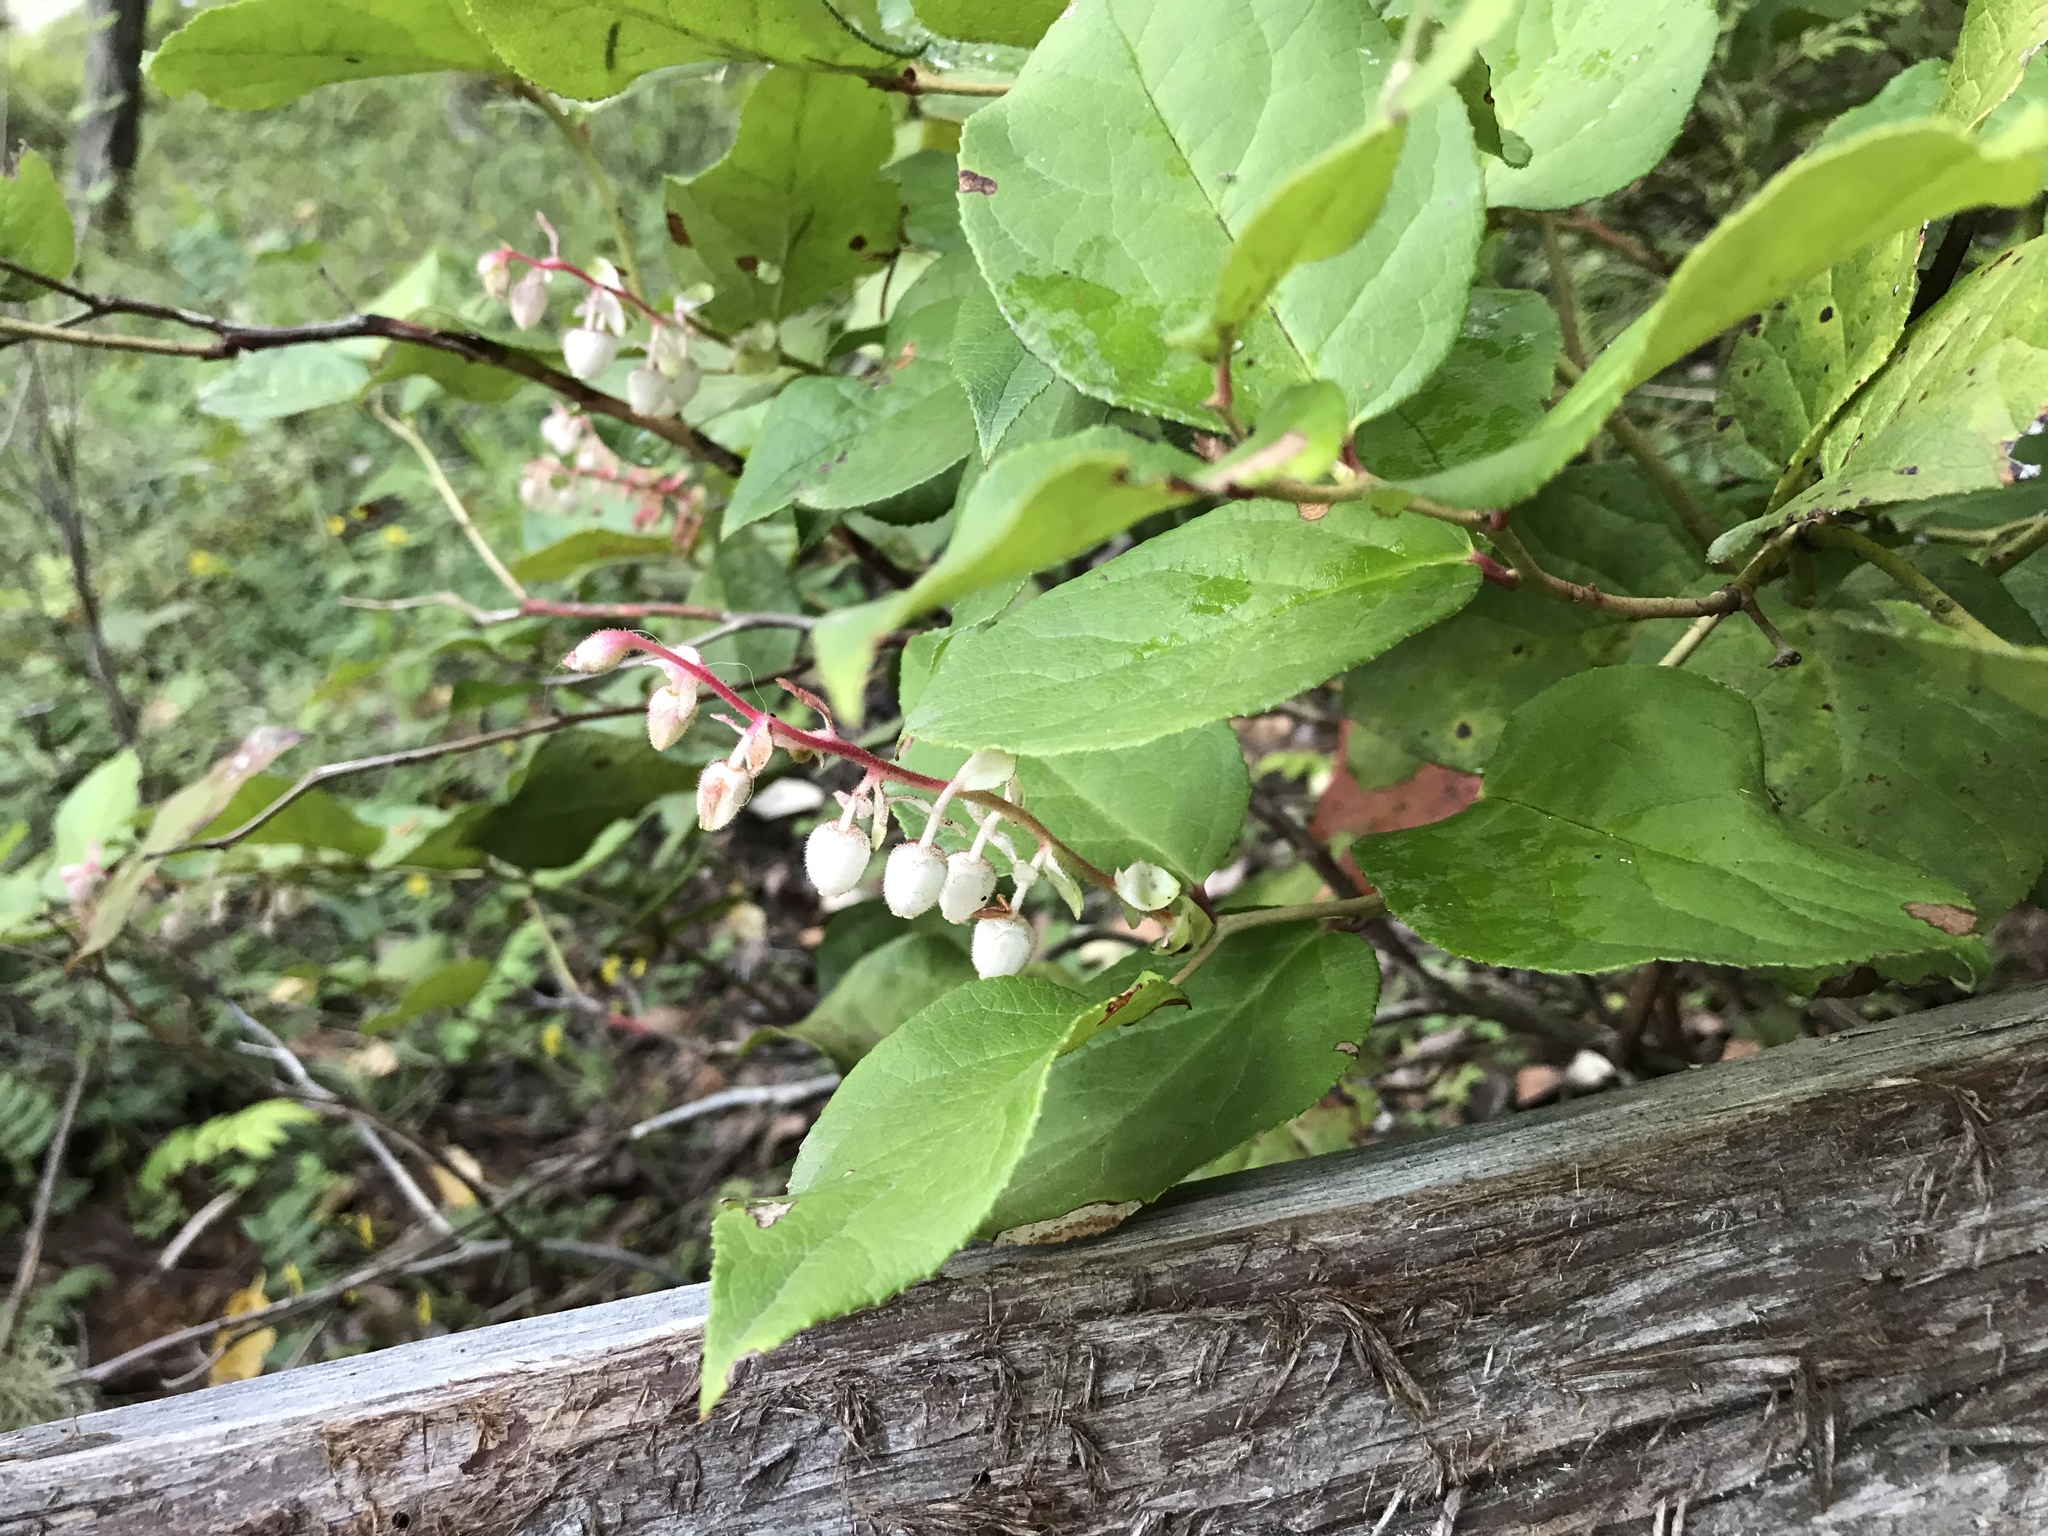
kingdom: Plantae
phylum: Tracheophyta
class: Magnoliopsida
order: Ericales
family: Ericaceae
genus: Gaultheria
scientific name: Gaultheria shallon
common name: Shallon
